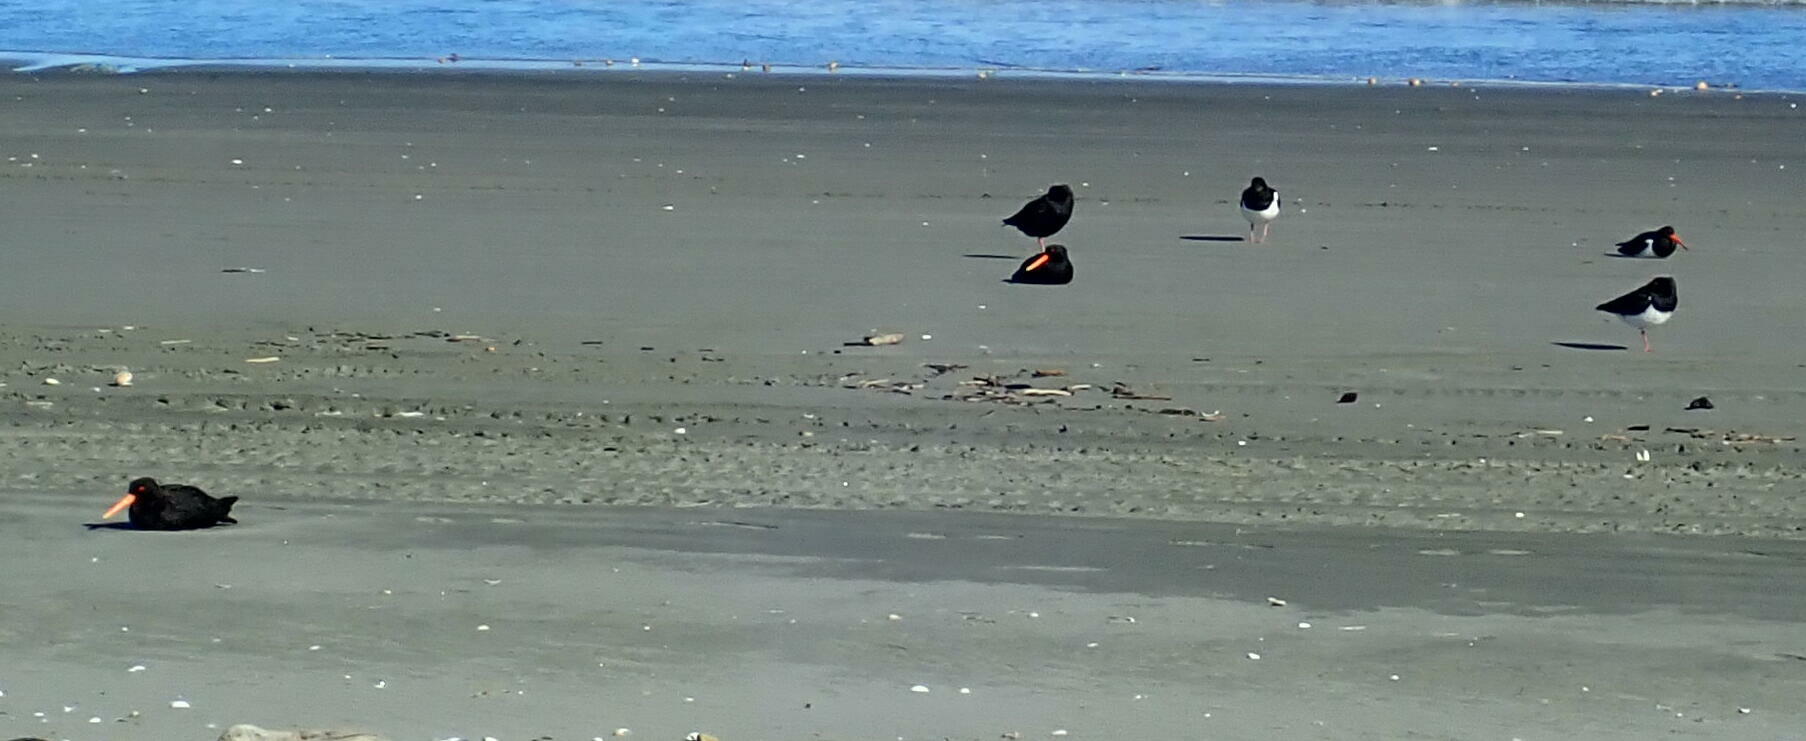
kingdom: Animalia
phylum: Chordata
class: Aves
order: Charadriiformes
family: Haematopodidae
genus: Haematopus
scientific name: Haematopus unicolor
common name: Variable oystercatcher
